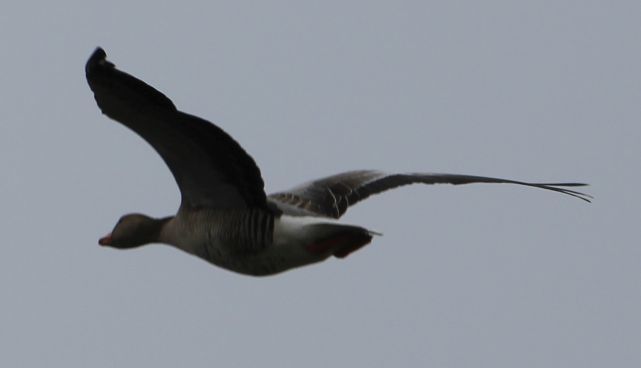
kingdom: Animalia
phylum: Chordata
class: Aves
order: Anseriformes
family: Anatidae
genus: Anser
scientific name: Anser anser
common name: Greylag goose
